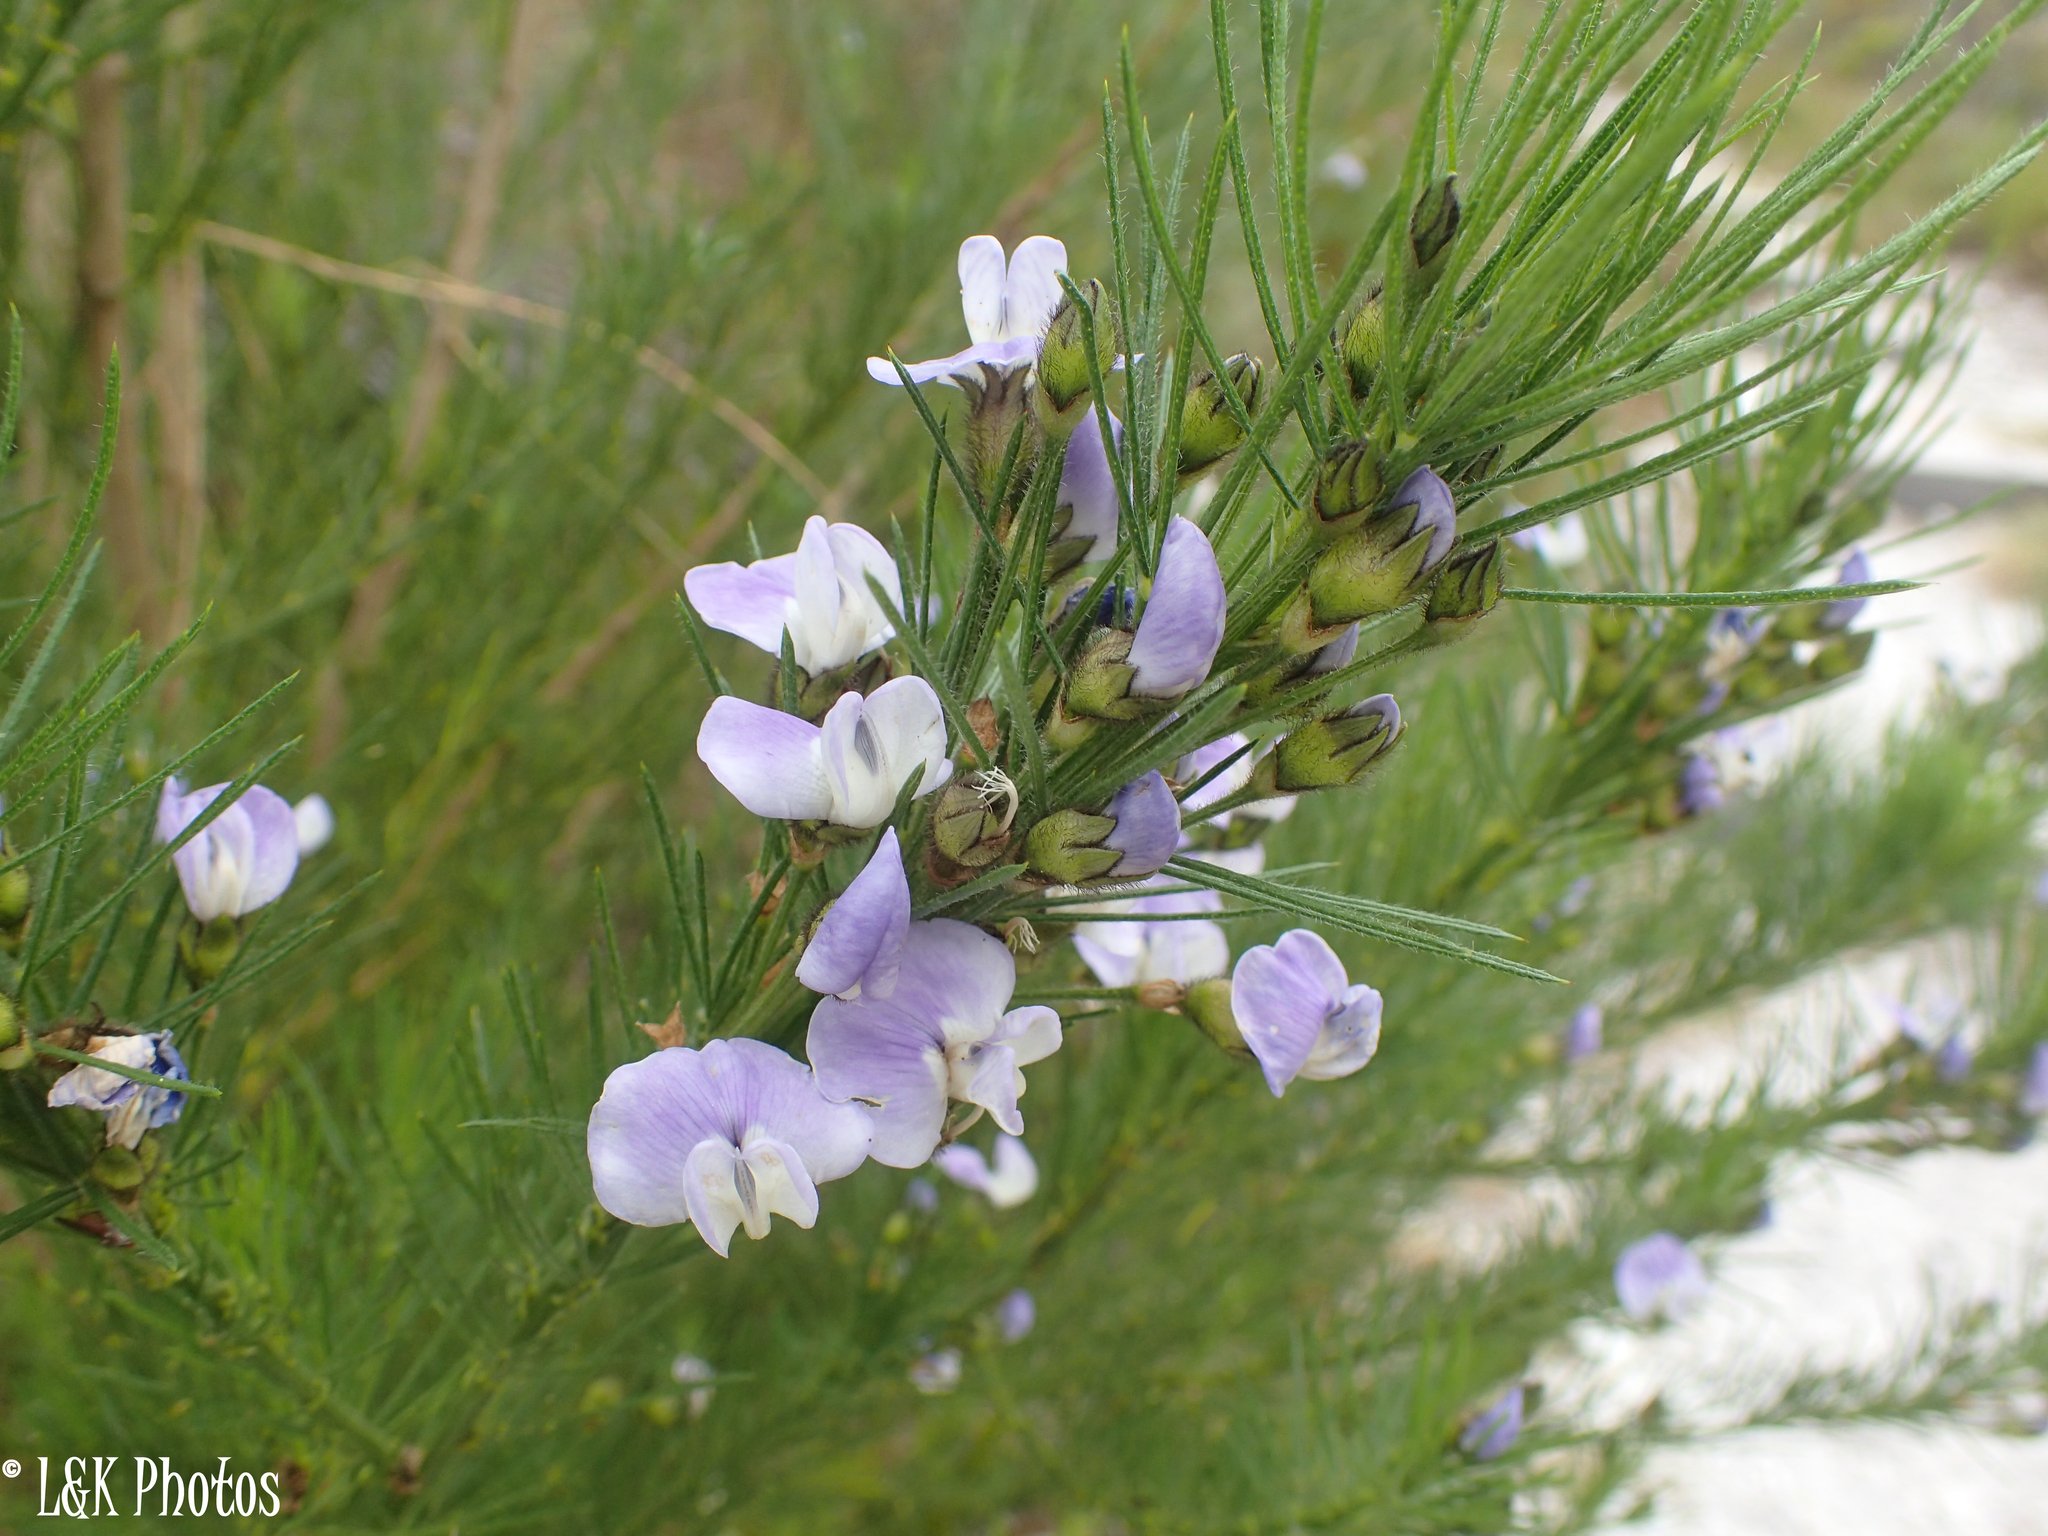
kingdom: Plantae
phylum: Tracheophyta
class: Magnoliopsida
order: Fabales
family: Fabaceae
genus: Psoralea
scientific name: Psoralea pinnata
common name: African scurfpea
